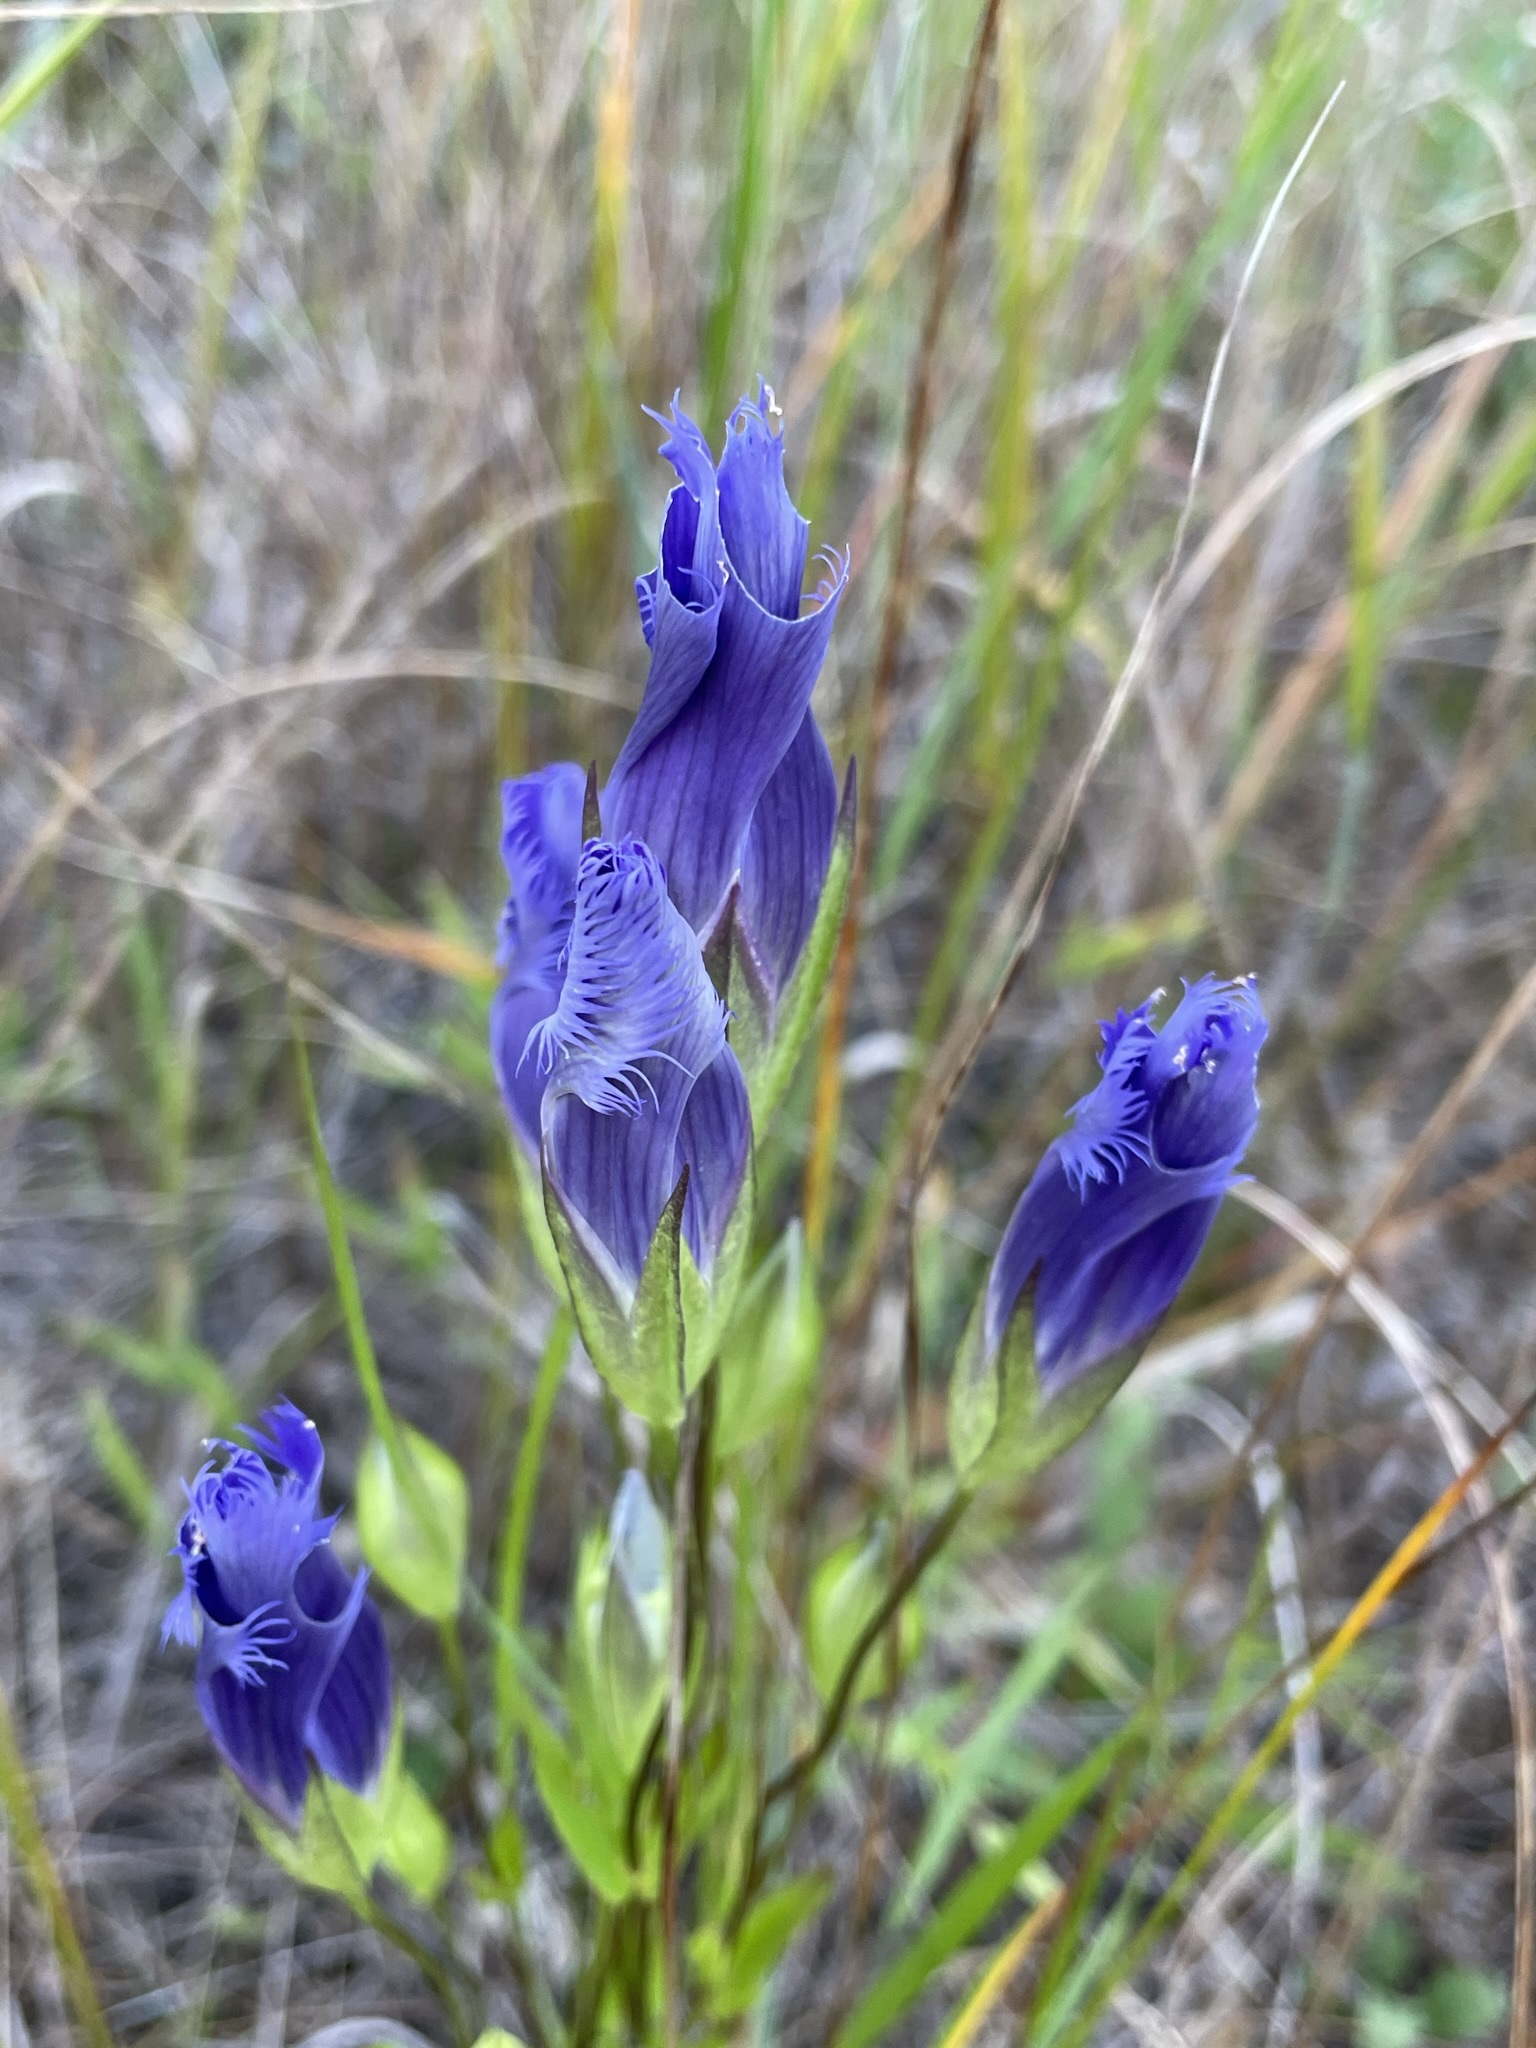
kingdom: Plantae
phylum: Tracheophyta
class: Magnoliopsida
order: Gentianales
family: Gentianaceae
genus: Gentianopsis
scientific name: Gentianopsis crinita
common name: Fringed-gentian
